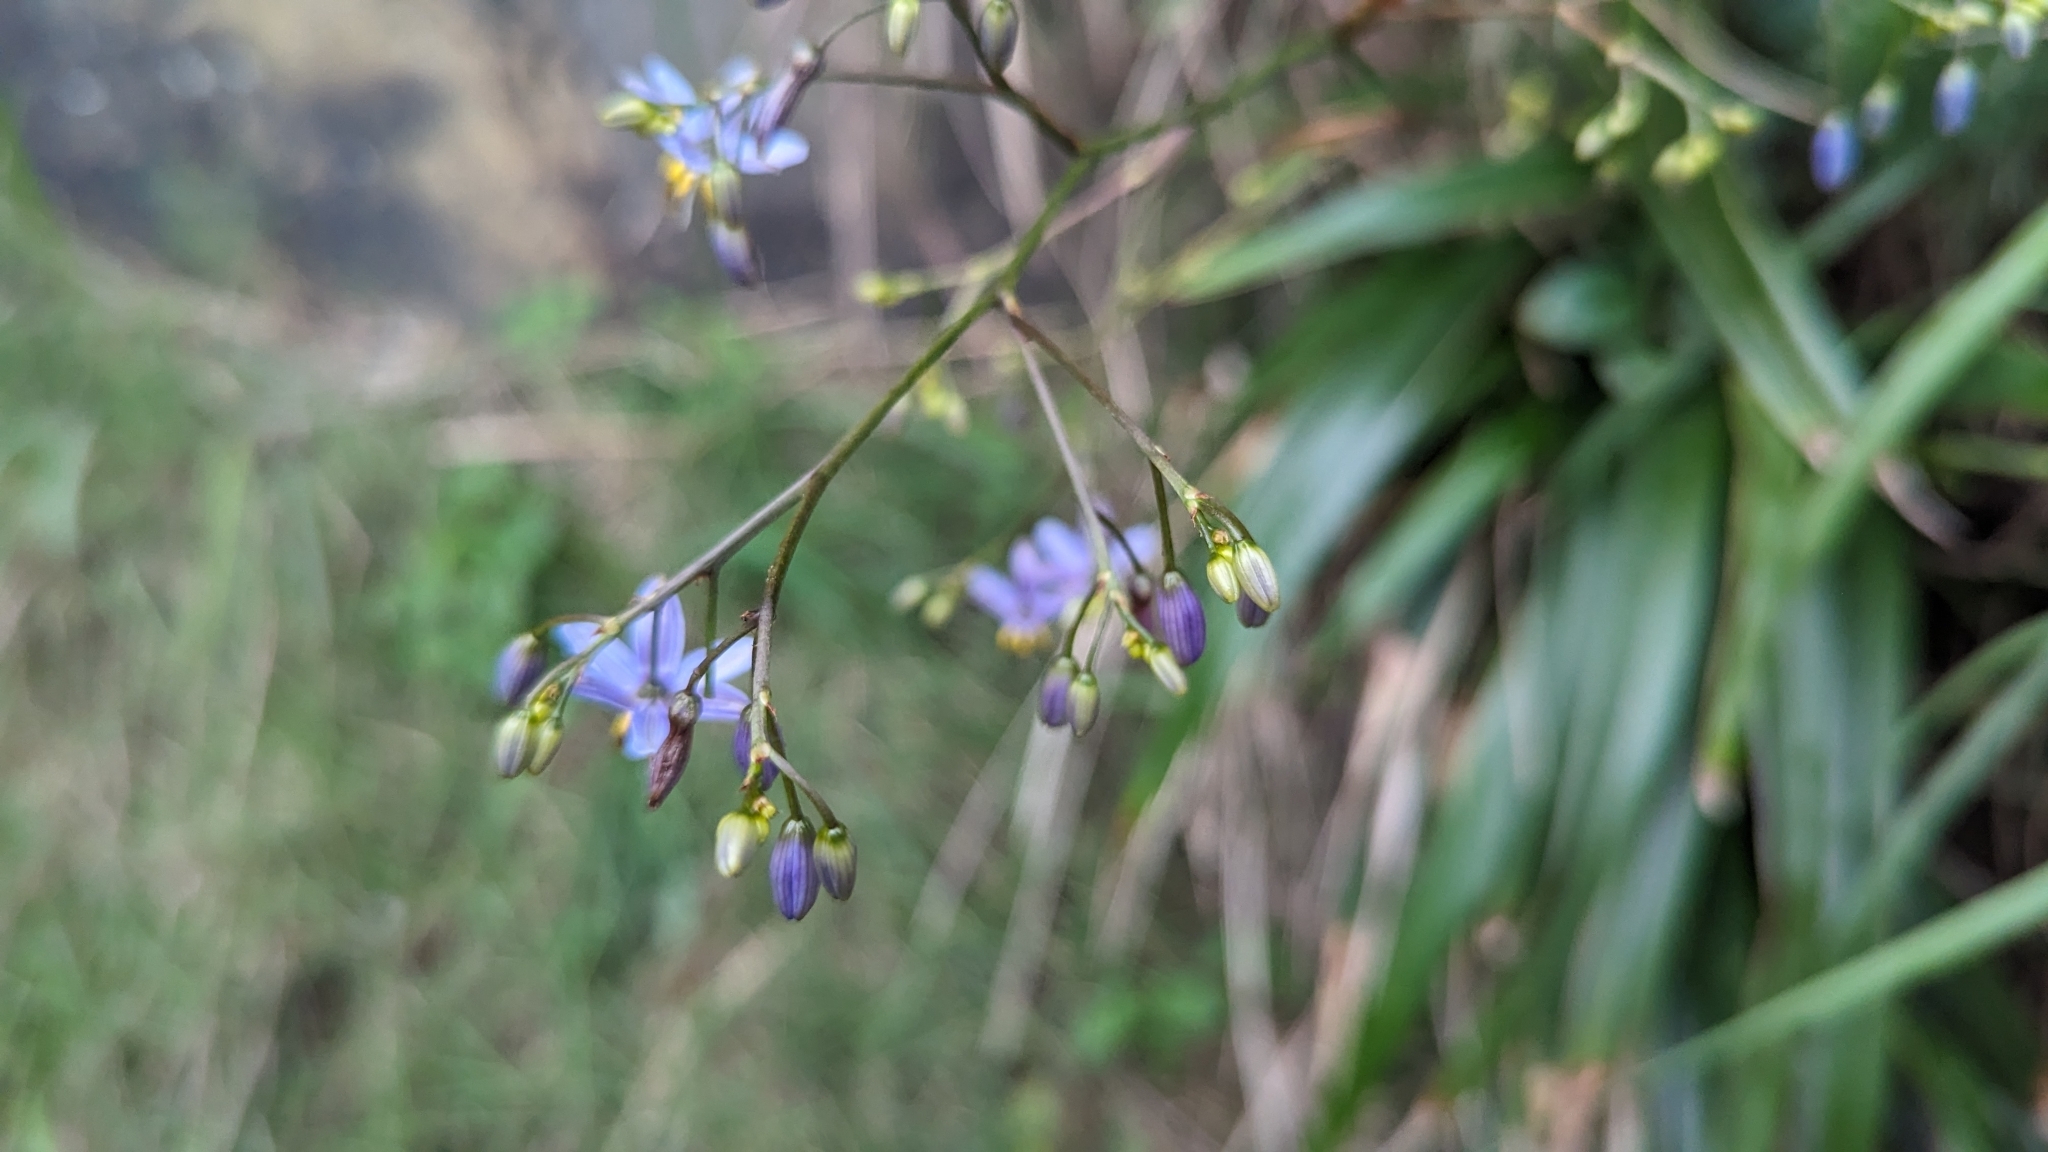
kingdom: Plantae
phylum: Tracheophyta
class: Liliopsida
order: Asparagales
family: Asphodelaceae
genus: Dianella
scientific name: Dianella ensifolia
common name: New zealand lilyplant
